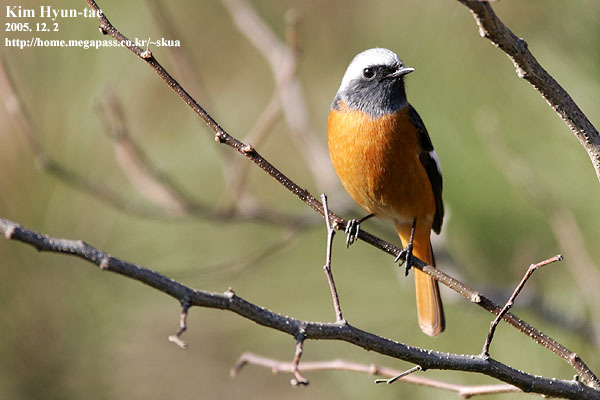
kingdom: Animalia
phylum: Chordata
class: Aves
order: Passeriformes
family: Muscicapidae
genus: Phoenicurus
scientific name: Phoenicurus auroreus
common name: Daurian redstart
